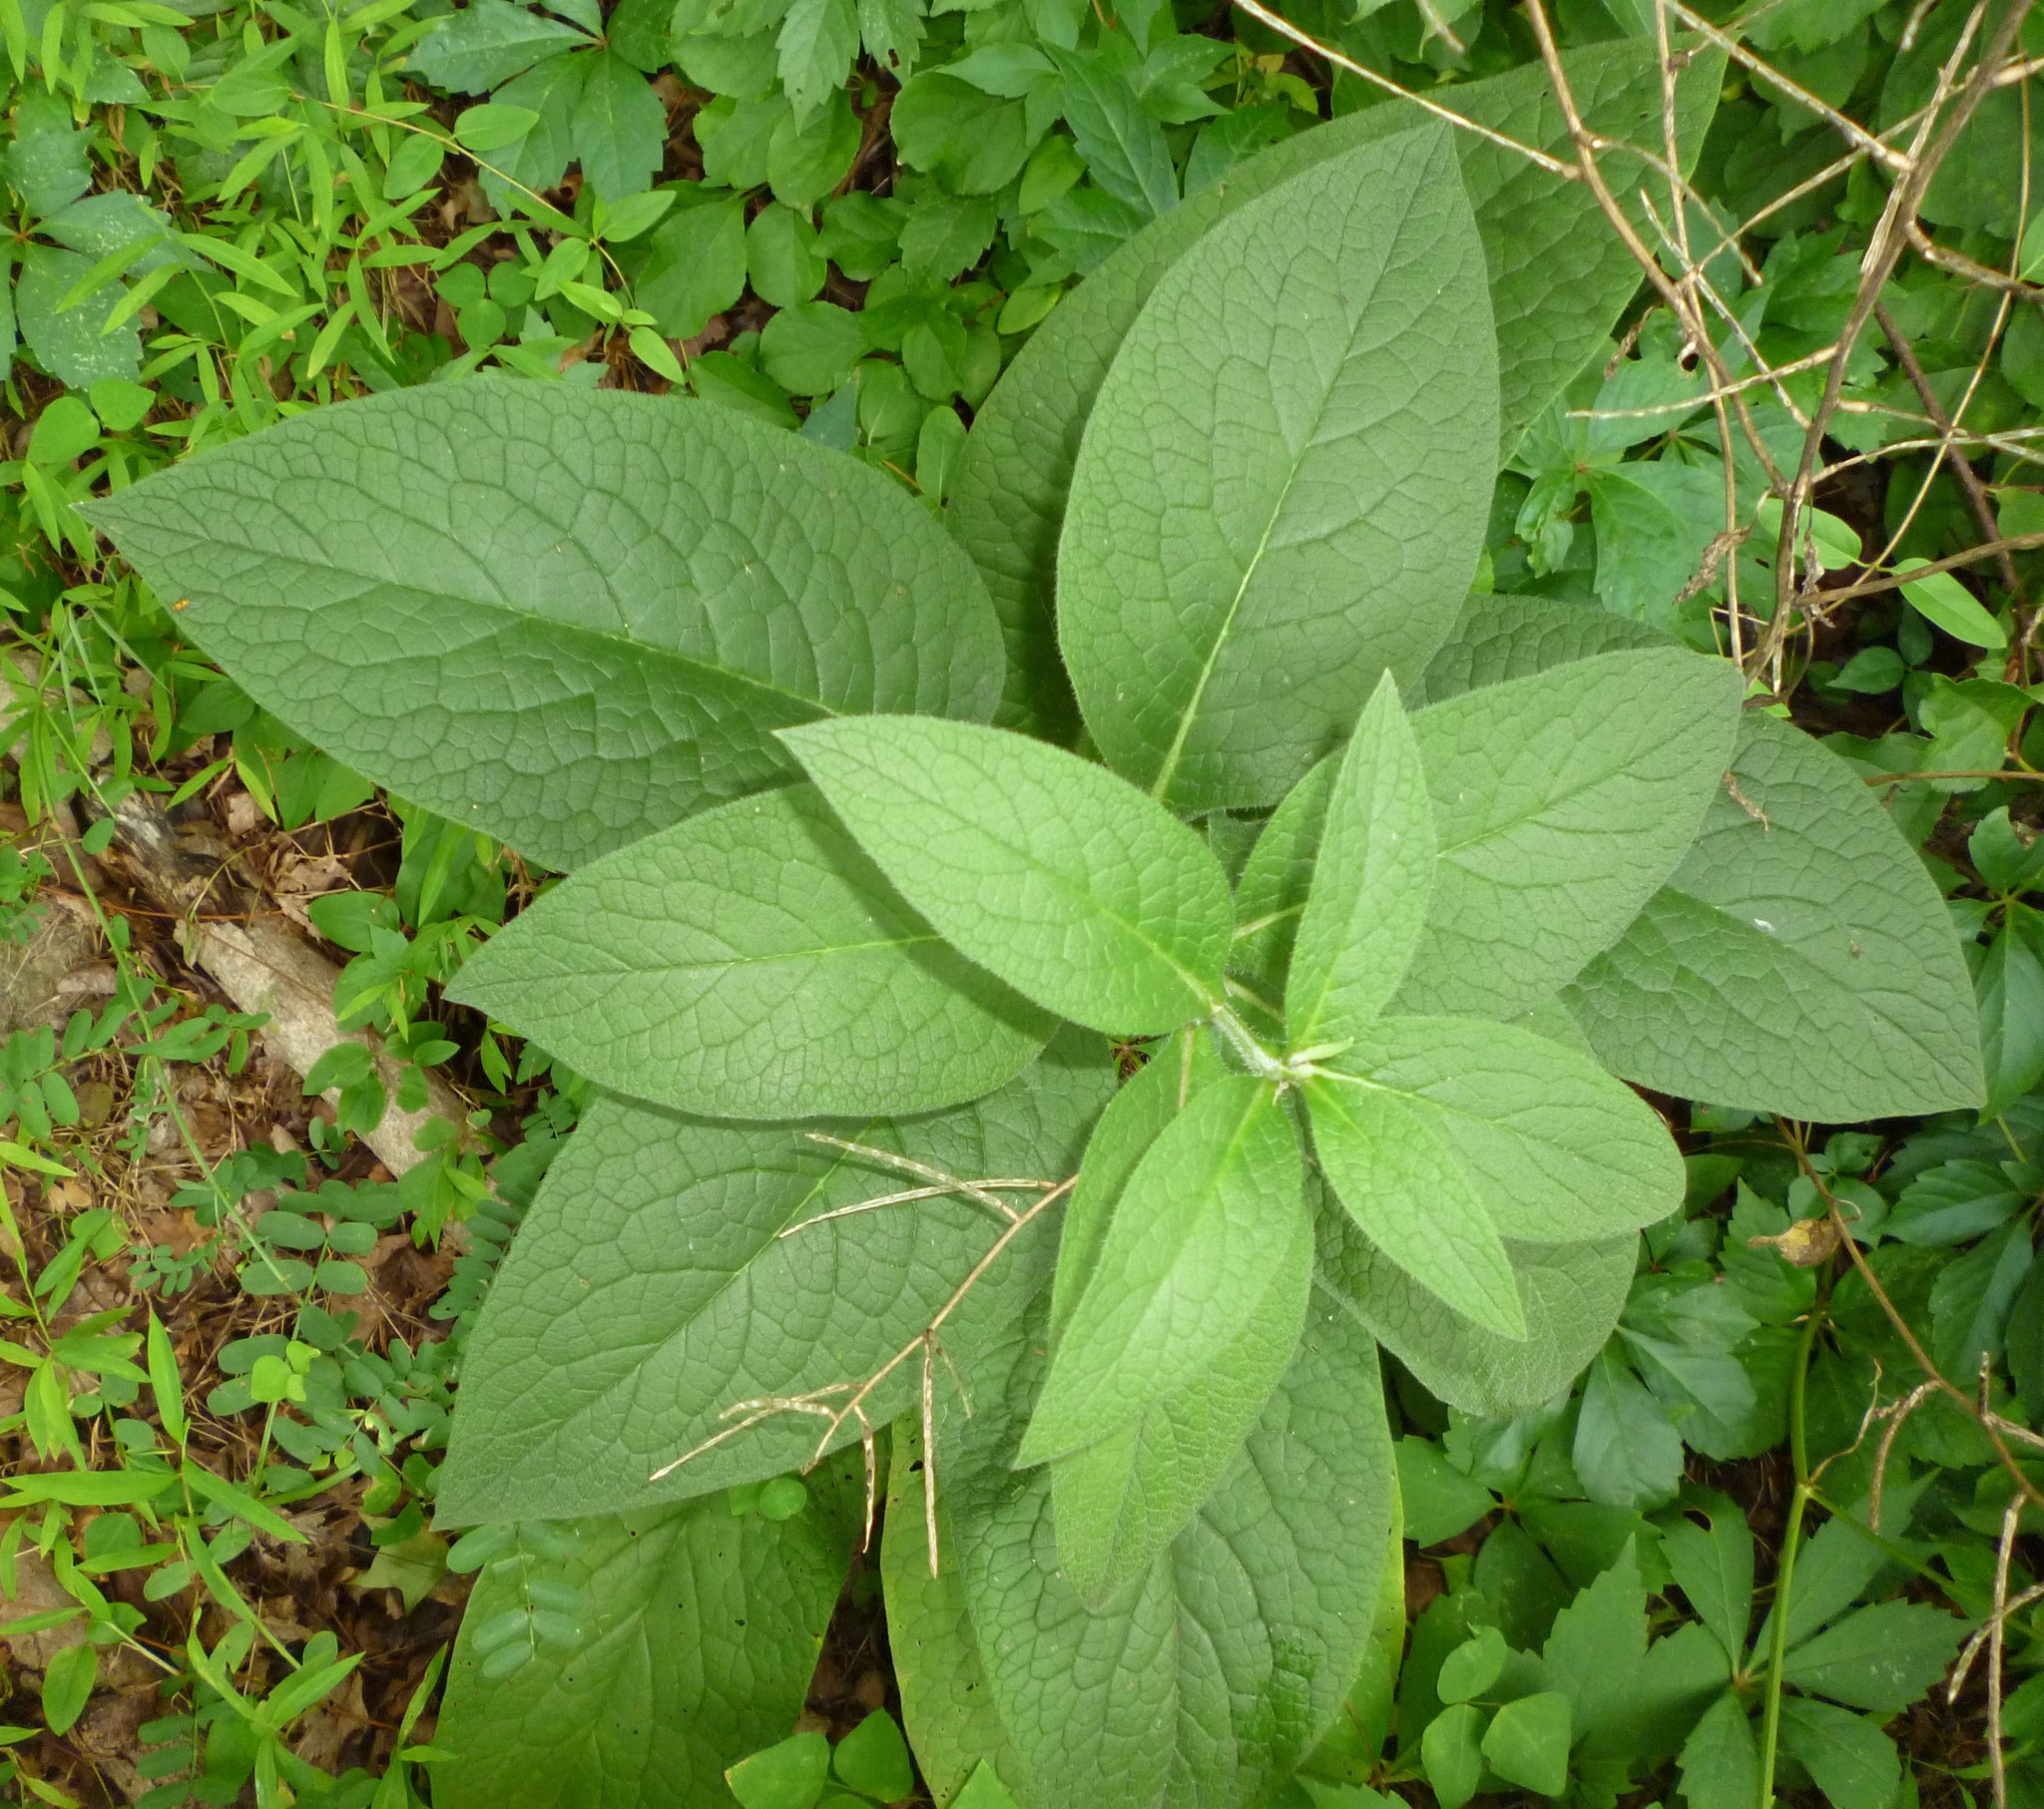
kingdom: Plantae
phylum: Tracheophyta
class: Magnoliopsida
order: Boraginales
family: Boraginaceae
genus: Symphytum
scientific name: Symphytum officinale
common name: Common comfrey
